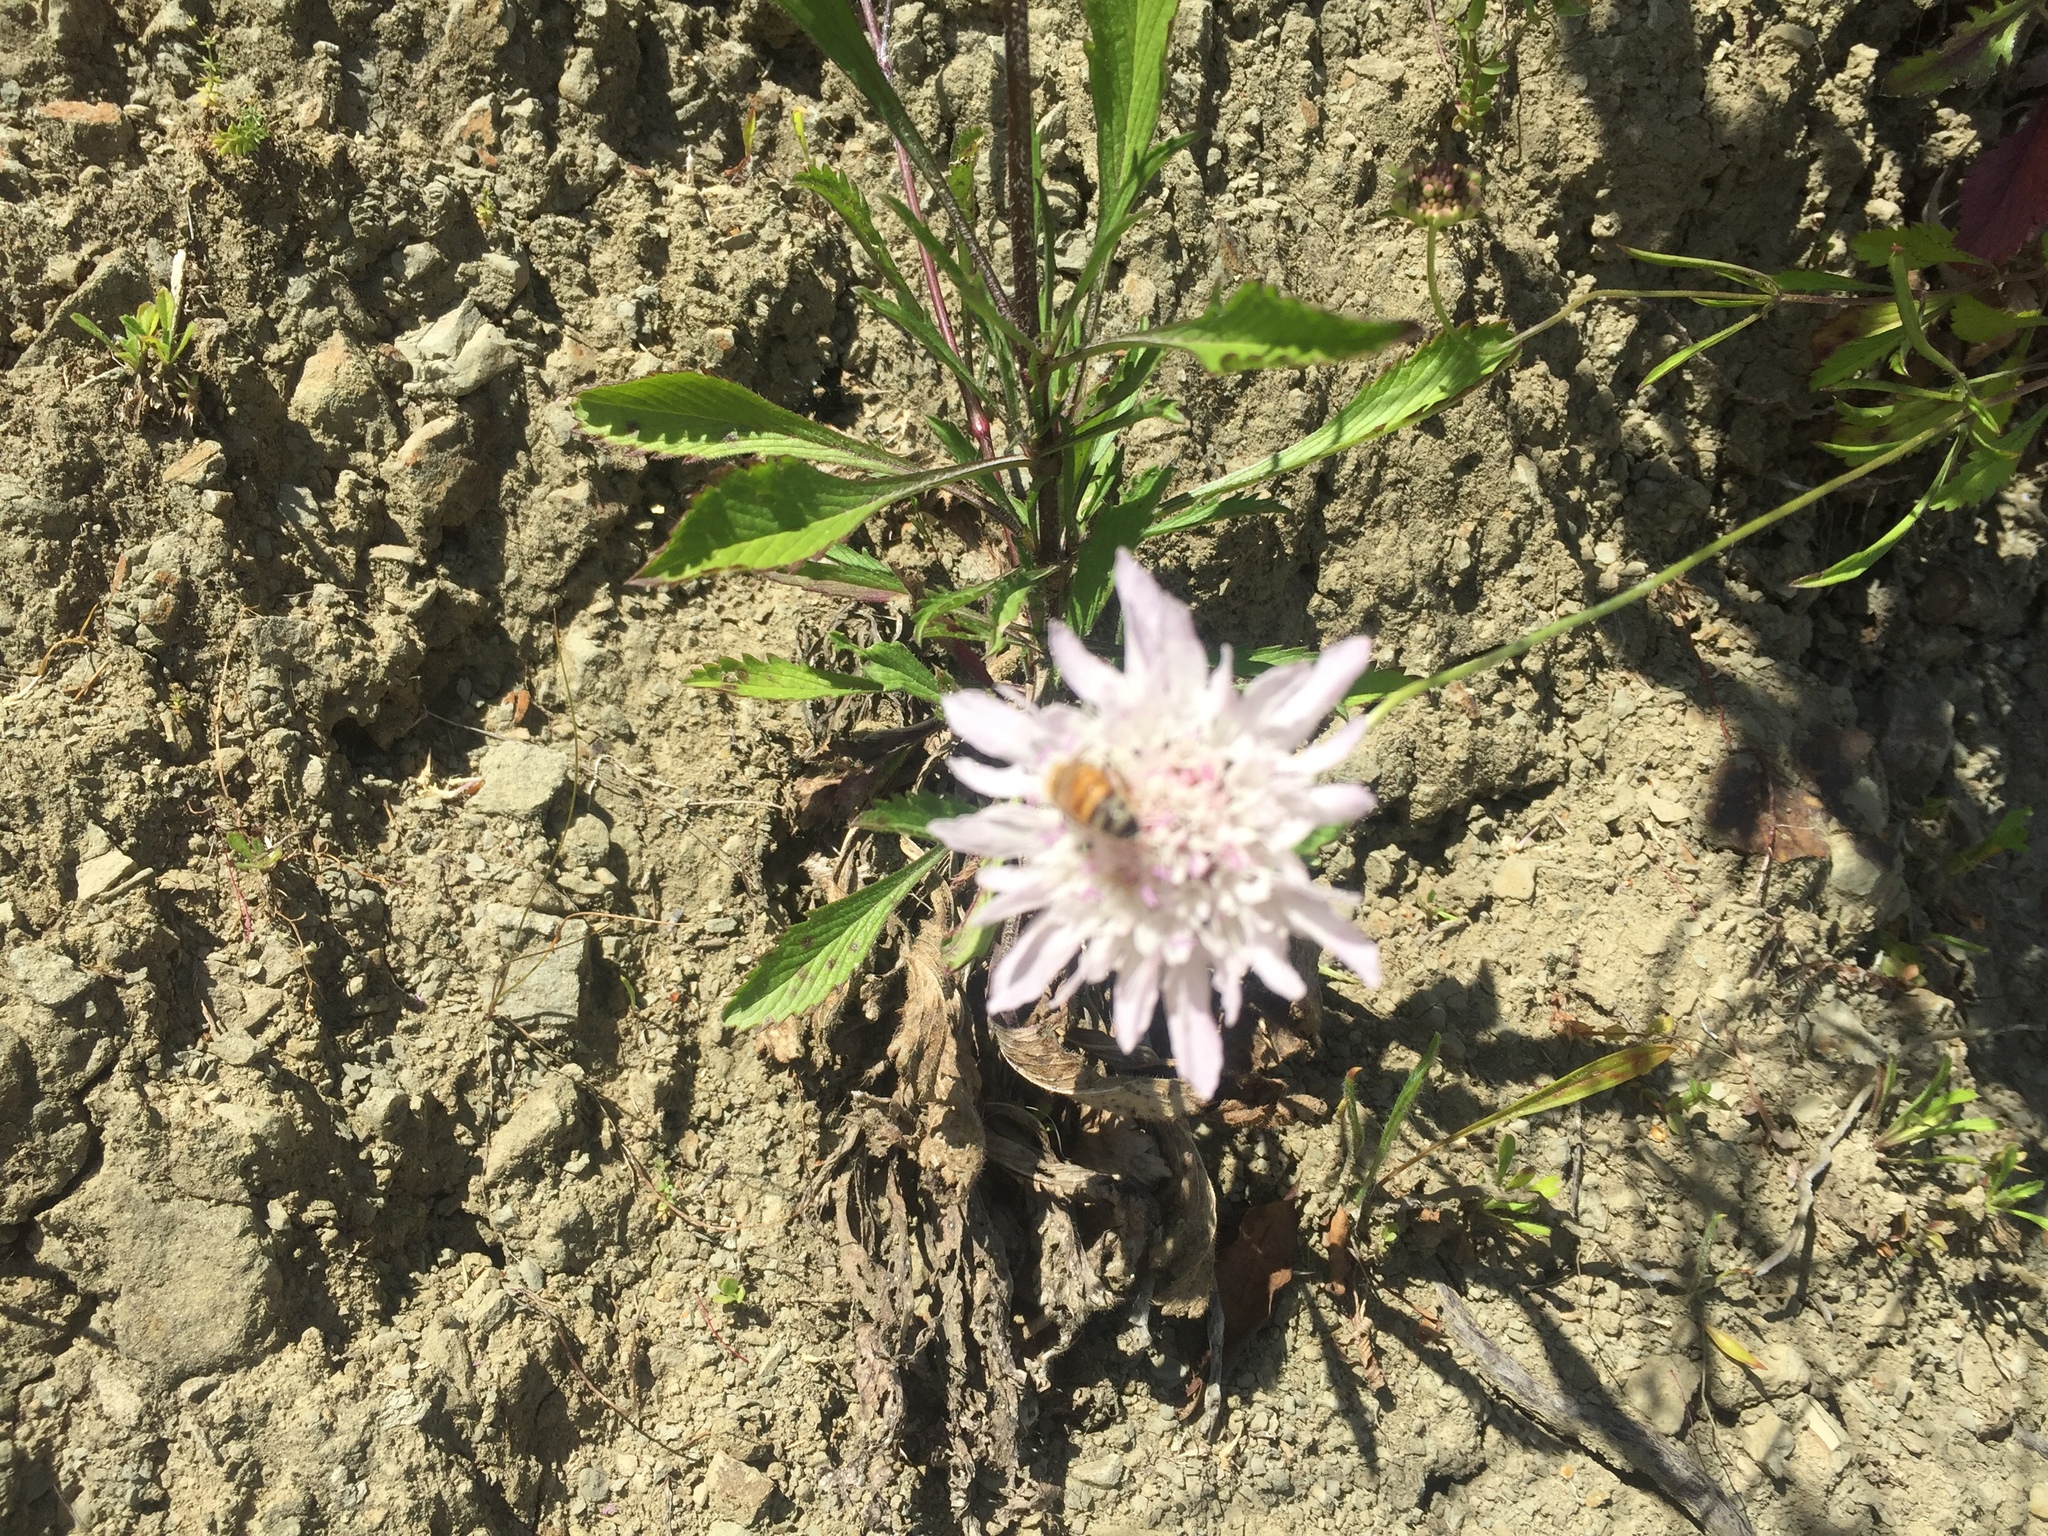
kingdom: Animalia
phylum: Arthropoda
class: Insecta
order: Hymenoptera
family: Apidae
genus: Apis
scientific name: Apis mellifera
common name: Honey bee
